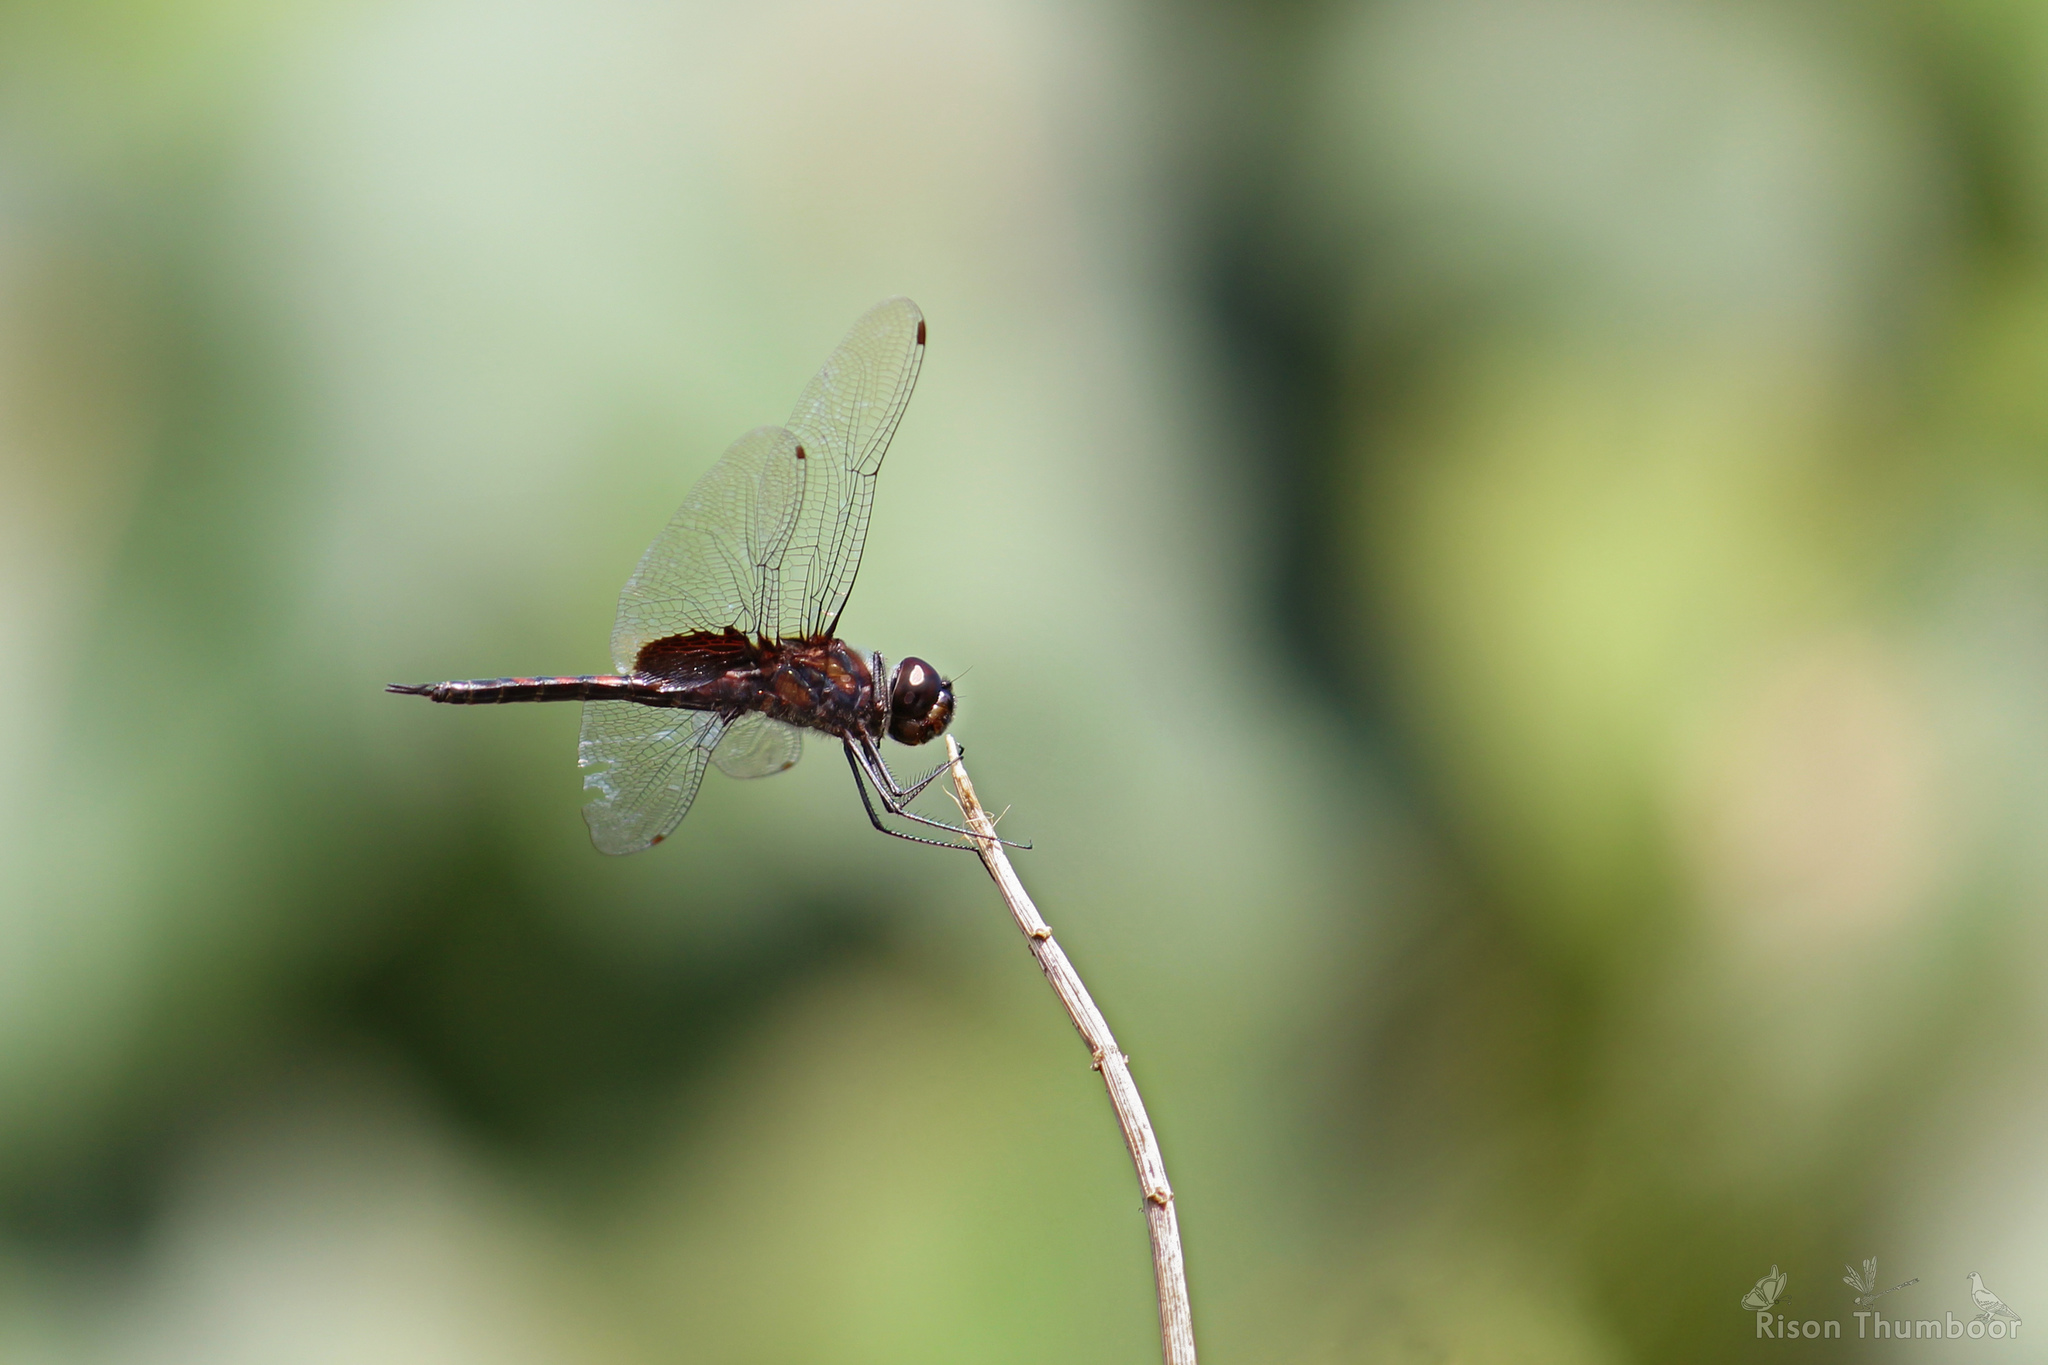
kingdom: Animalia
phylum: Arthropoda
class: Insecta
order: Odonata
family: Libellulidae
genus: Tramea
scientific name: Tramea limbata
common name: Ferruginous glider
